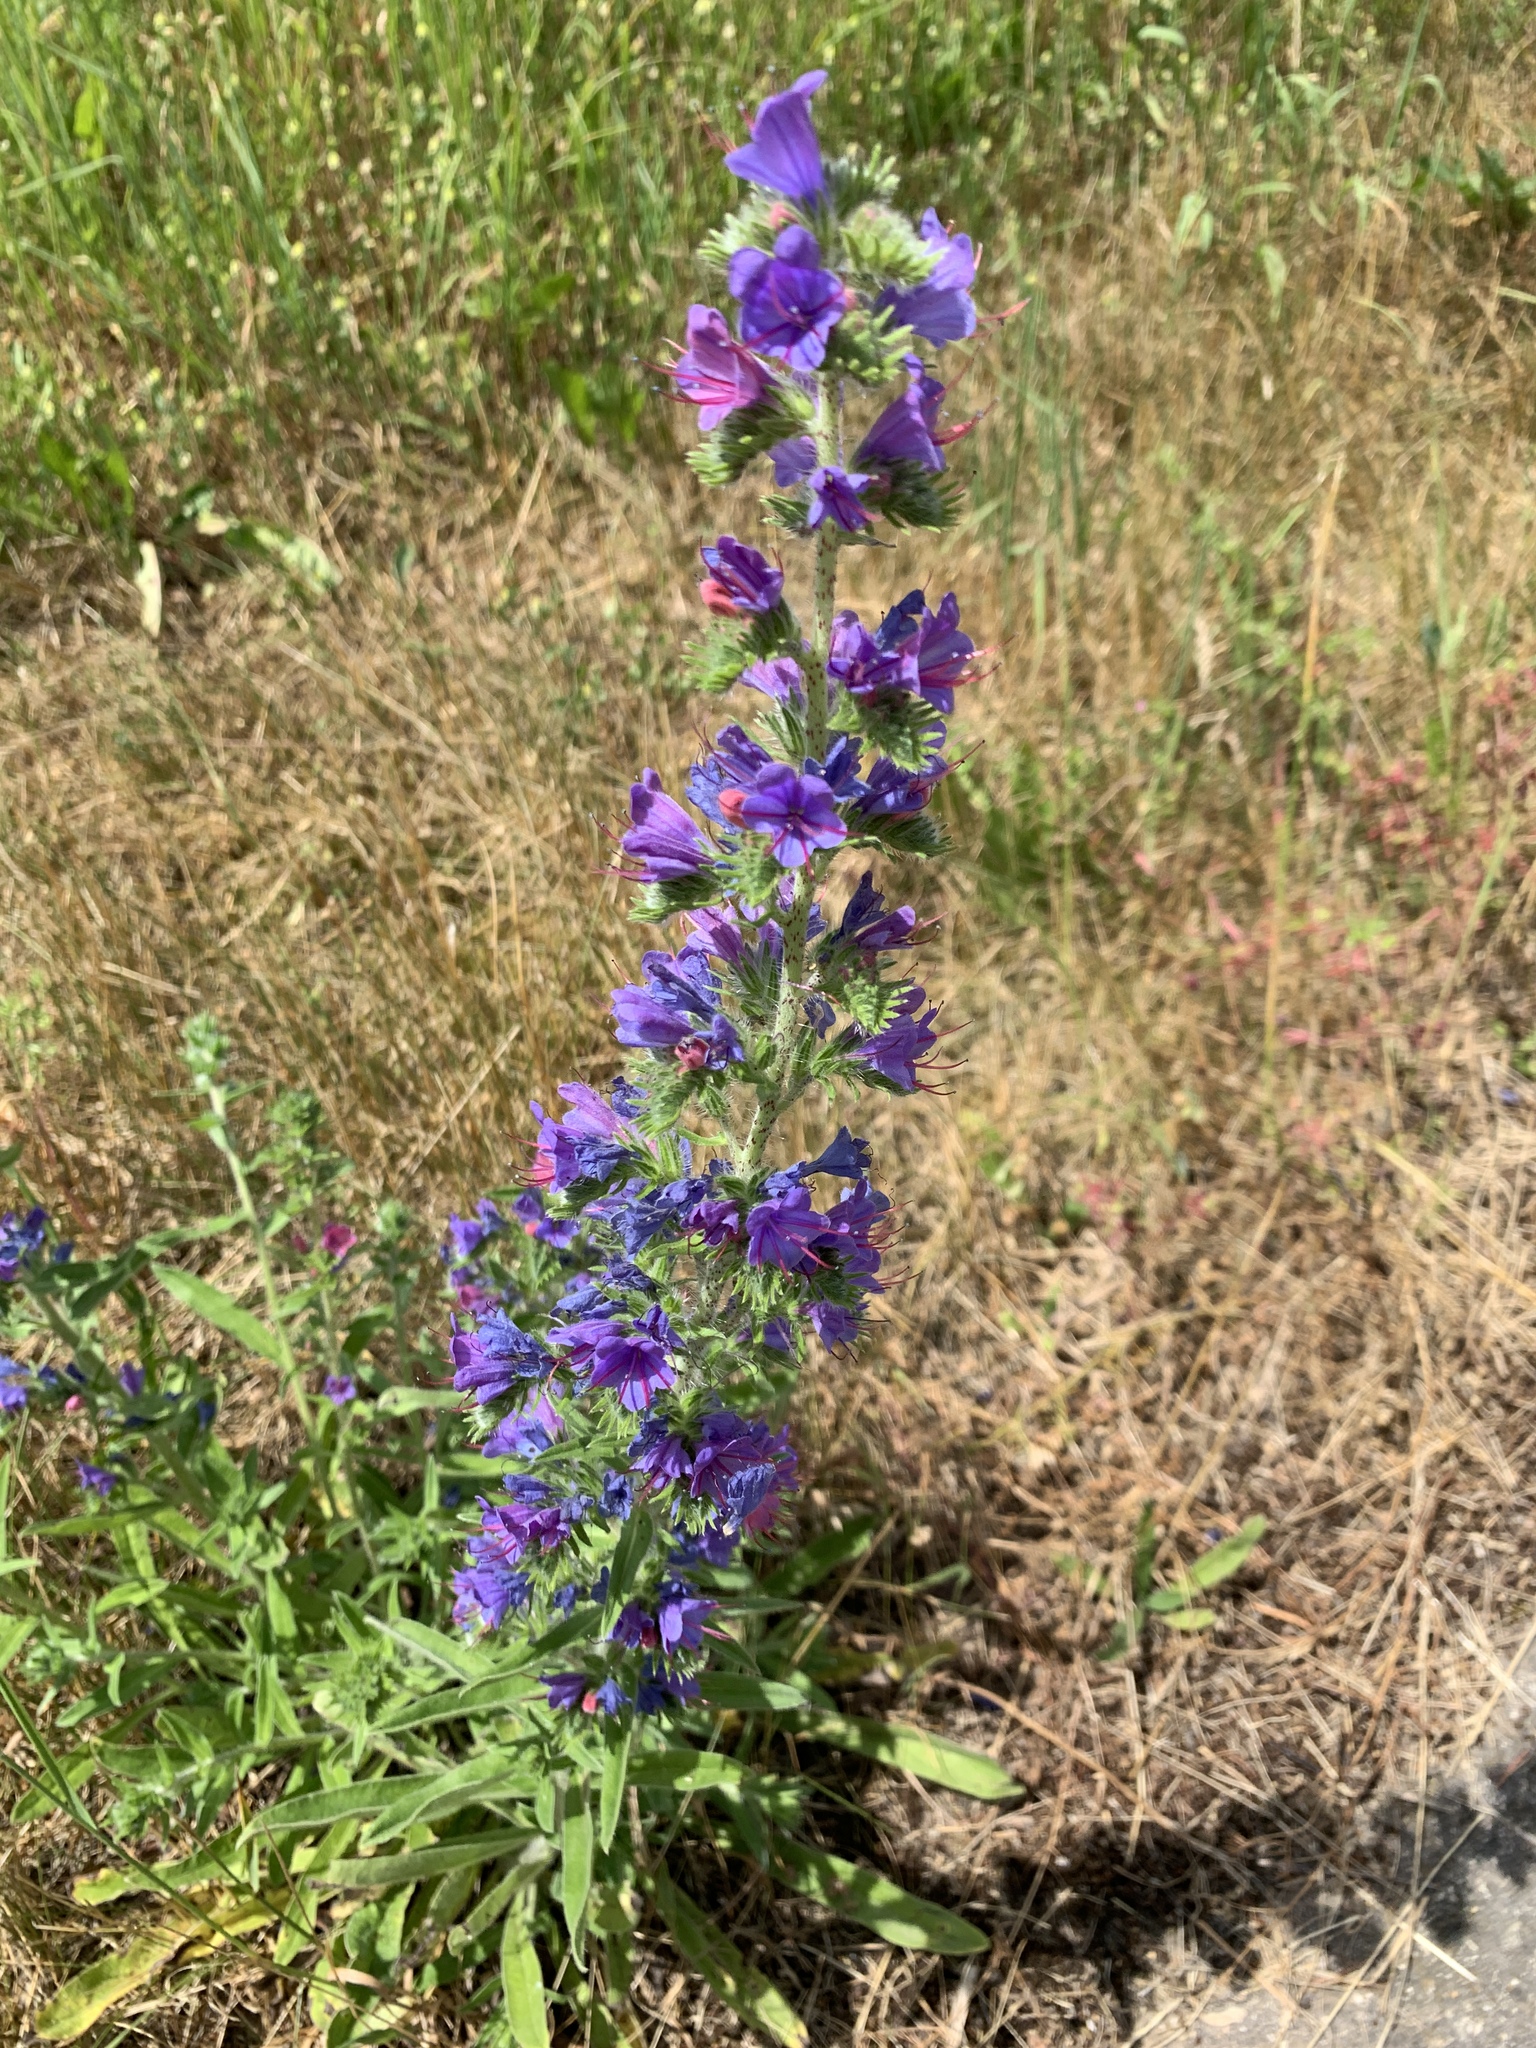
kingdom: Plantae
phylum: Tracheophyta
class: Magnoliopsida
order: Boraginales
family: Boraginaceae
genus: Echium
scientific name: Echium vulgare
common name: Common viper's bugloss
